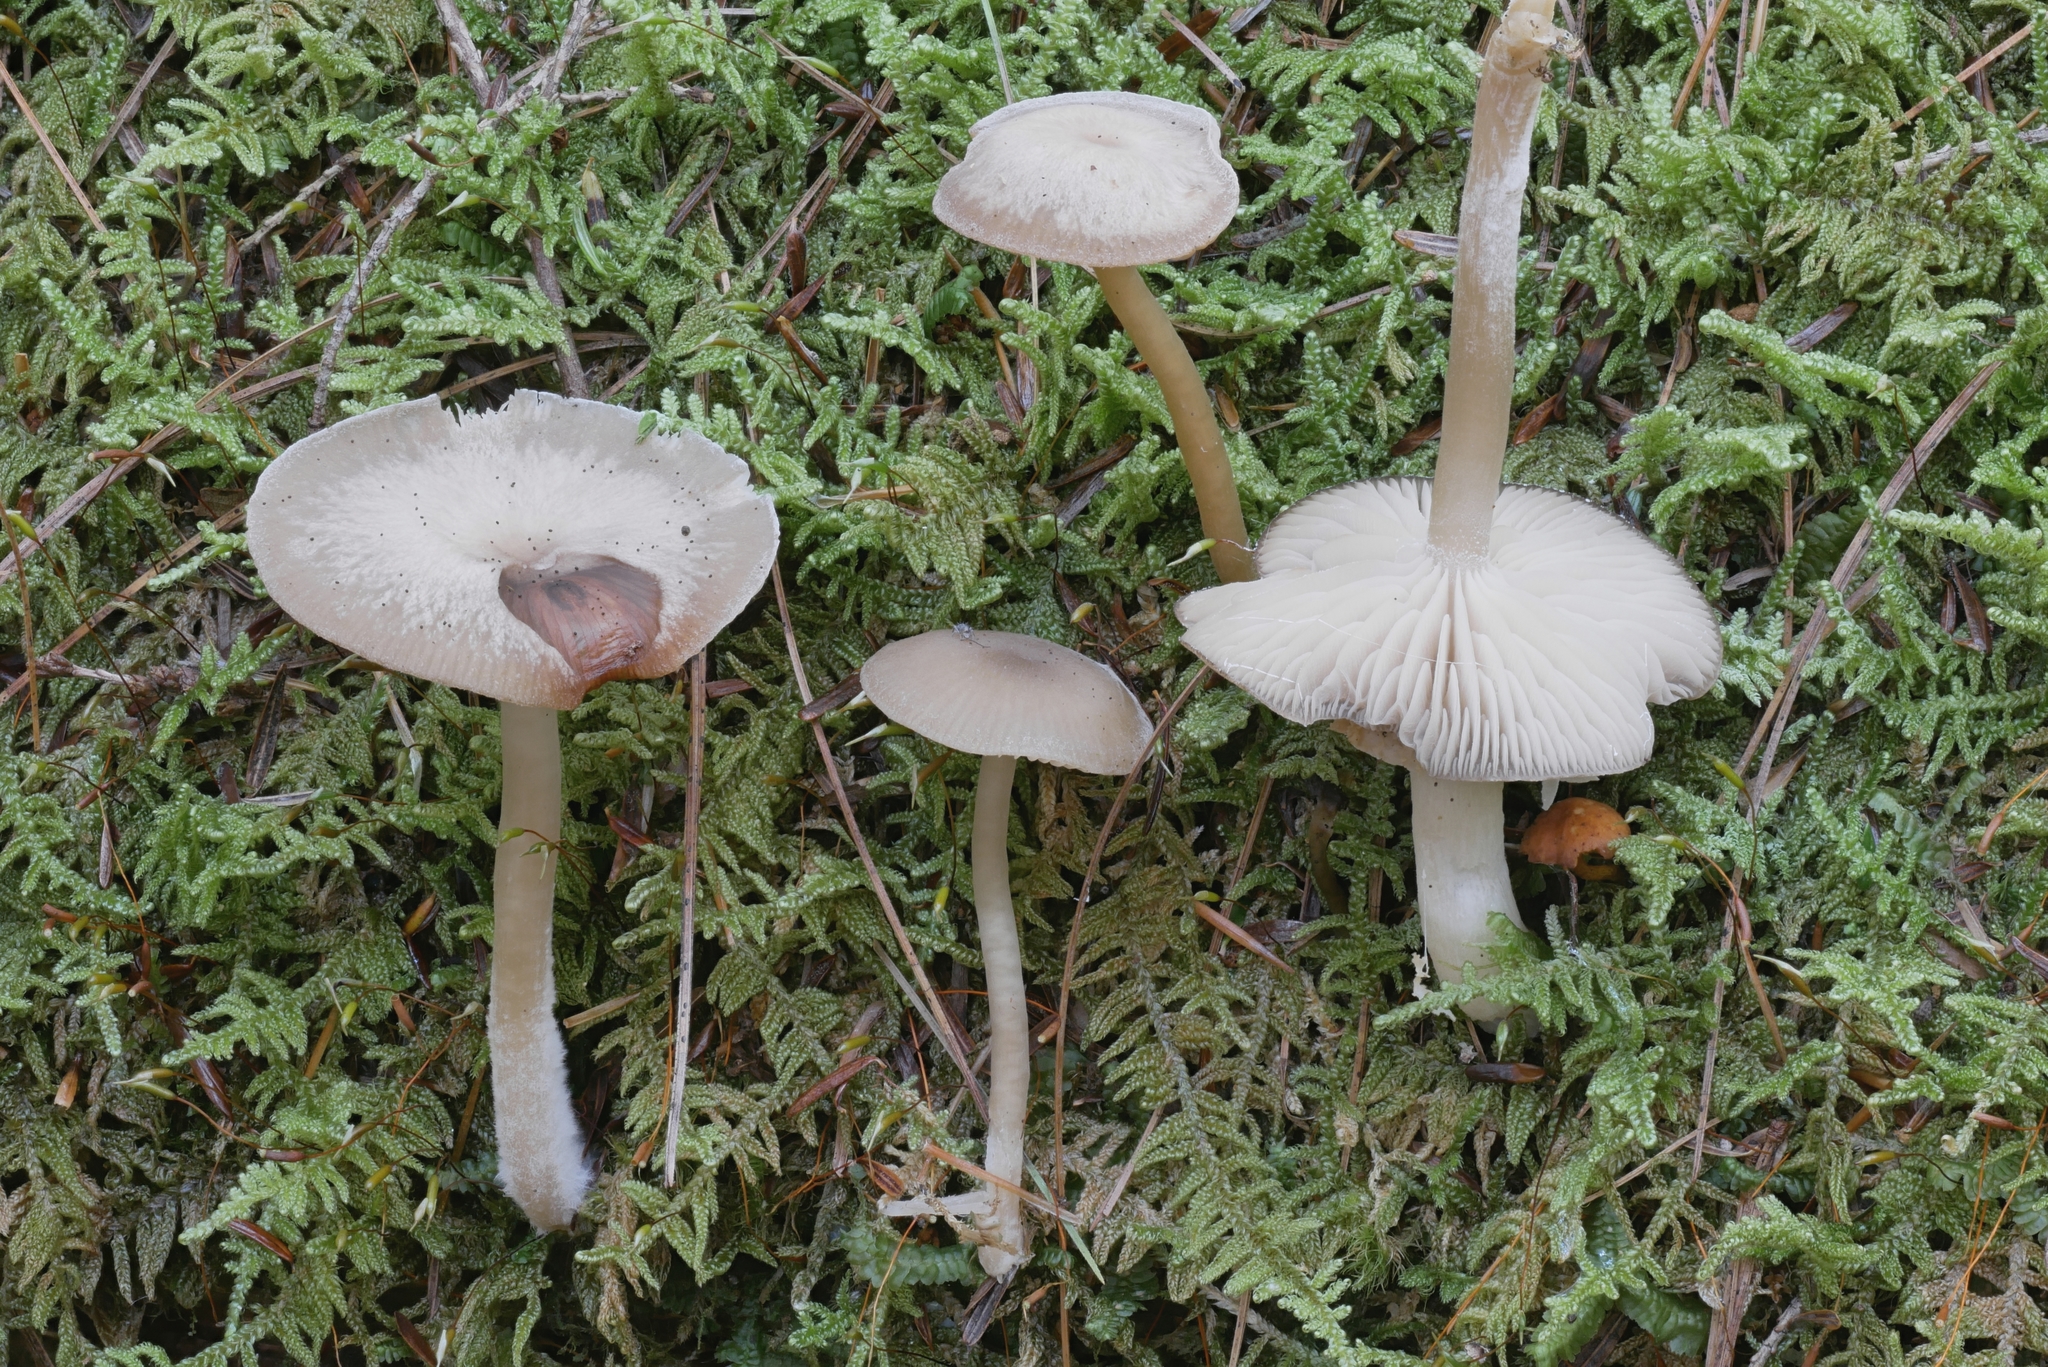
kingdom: Fungi
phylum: Basidiomycota
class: Agaricomycetes
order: Agaricales
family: Tricholomataceae
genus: Gamundia
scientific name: Gamundia striatula
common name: Lined meadowcap
